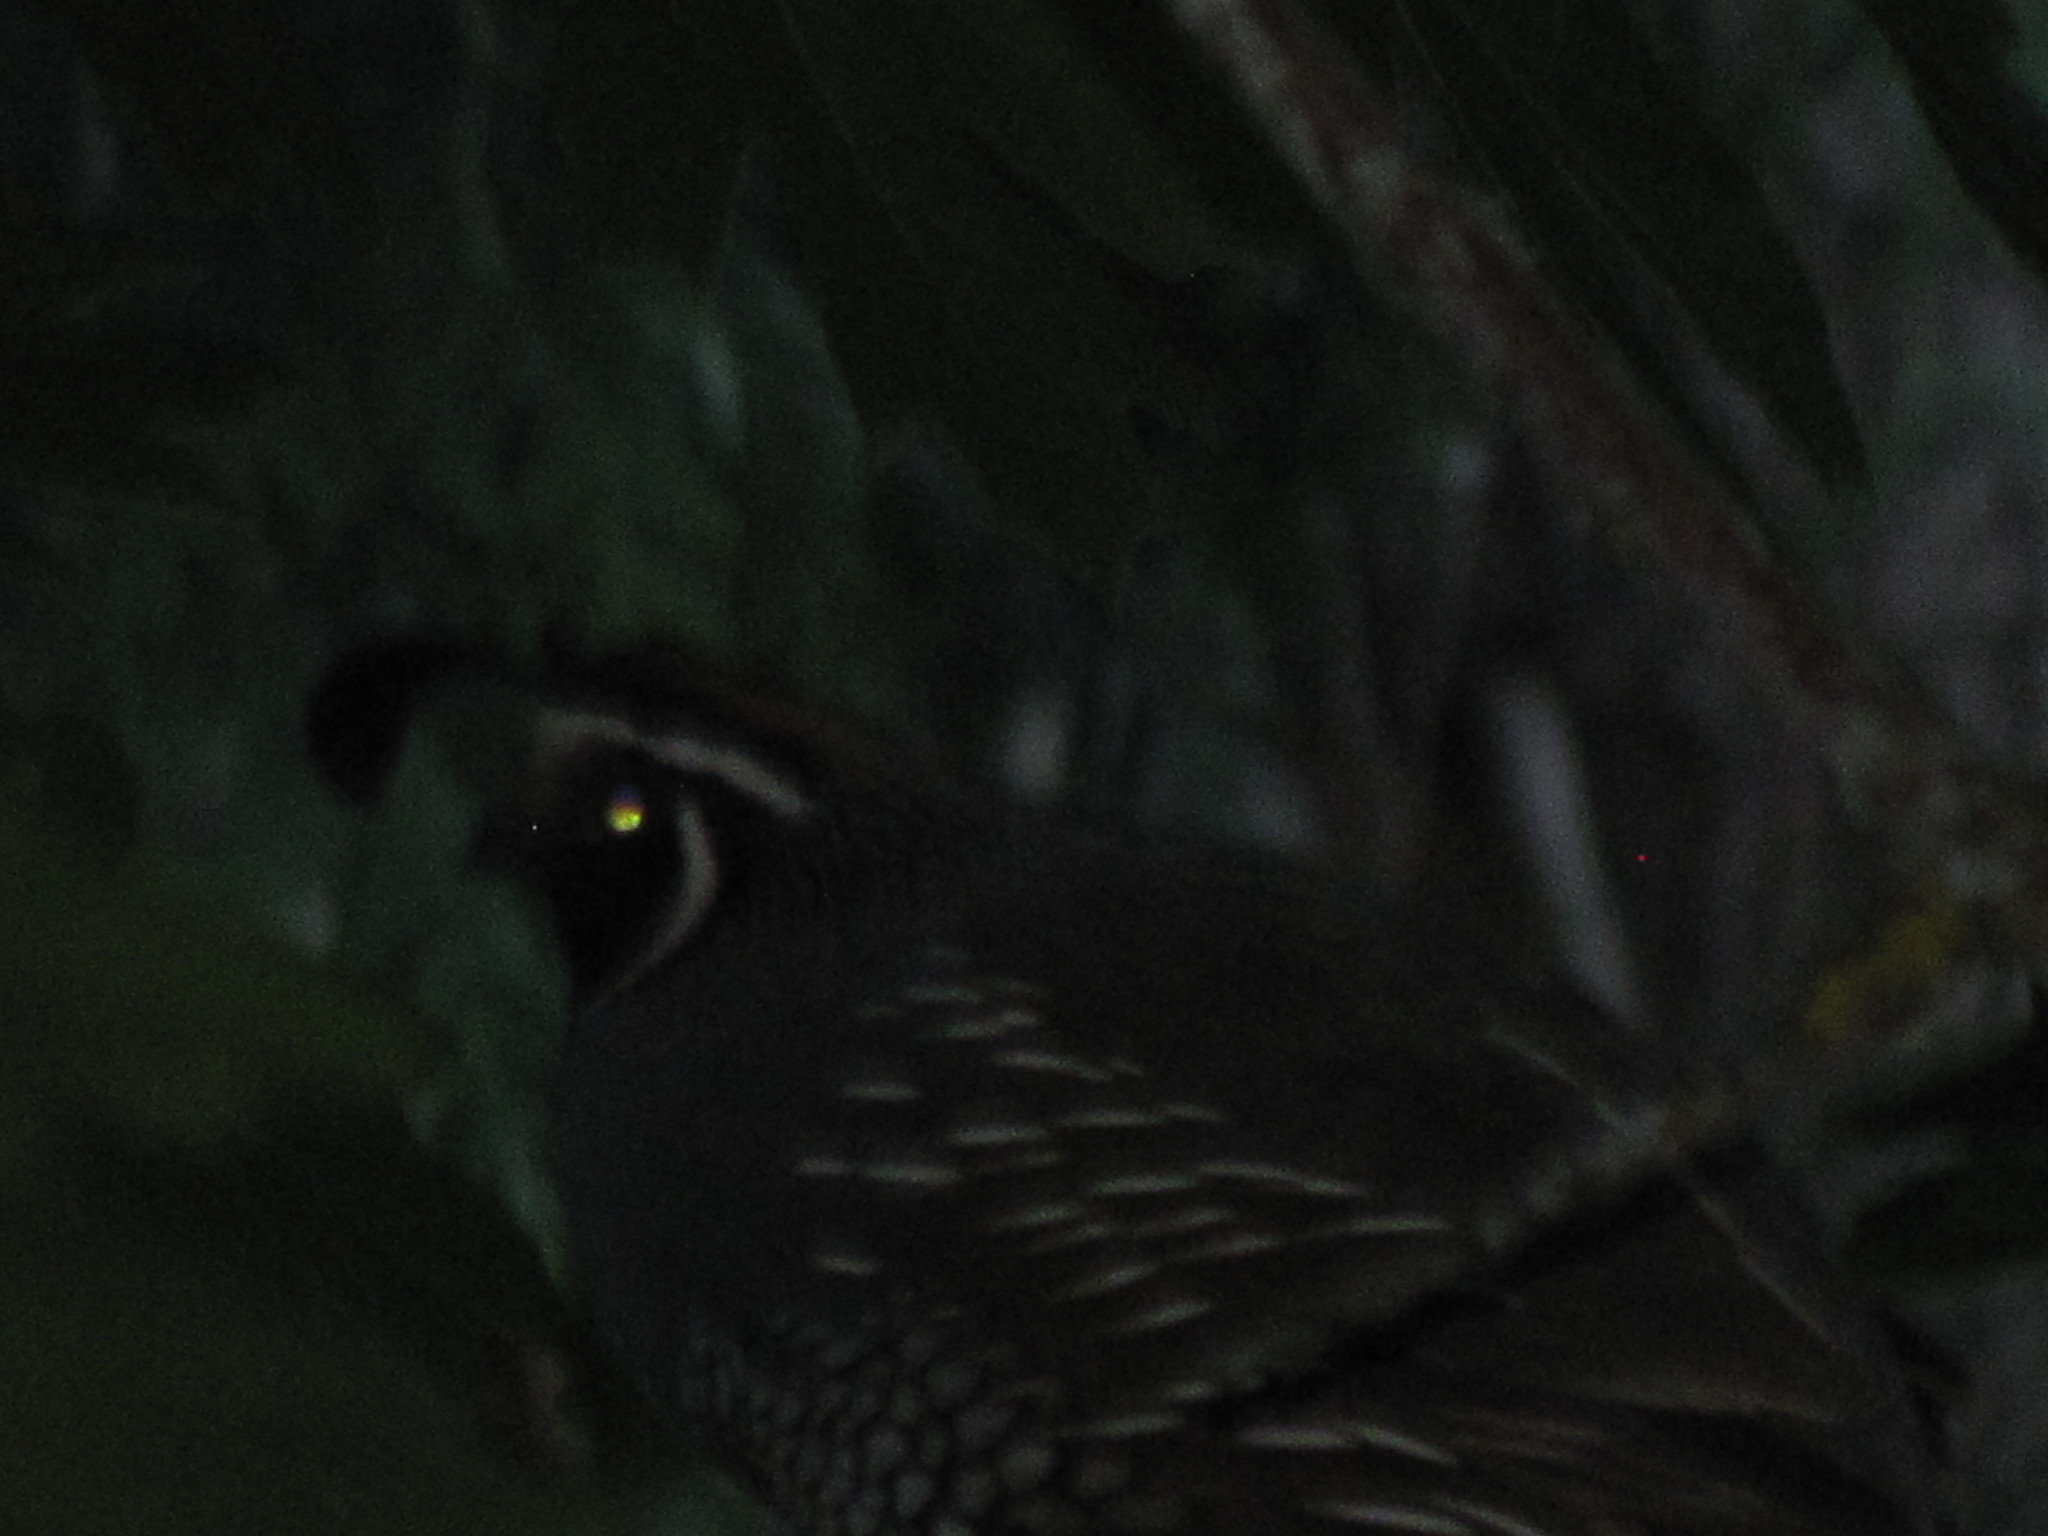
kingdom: Animalia
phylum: Chordata
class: Aves
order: Galliformes
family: Odontophoridae
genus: Callipepla
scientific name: Callipepla californica
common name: California quail
